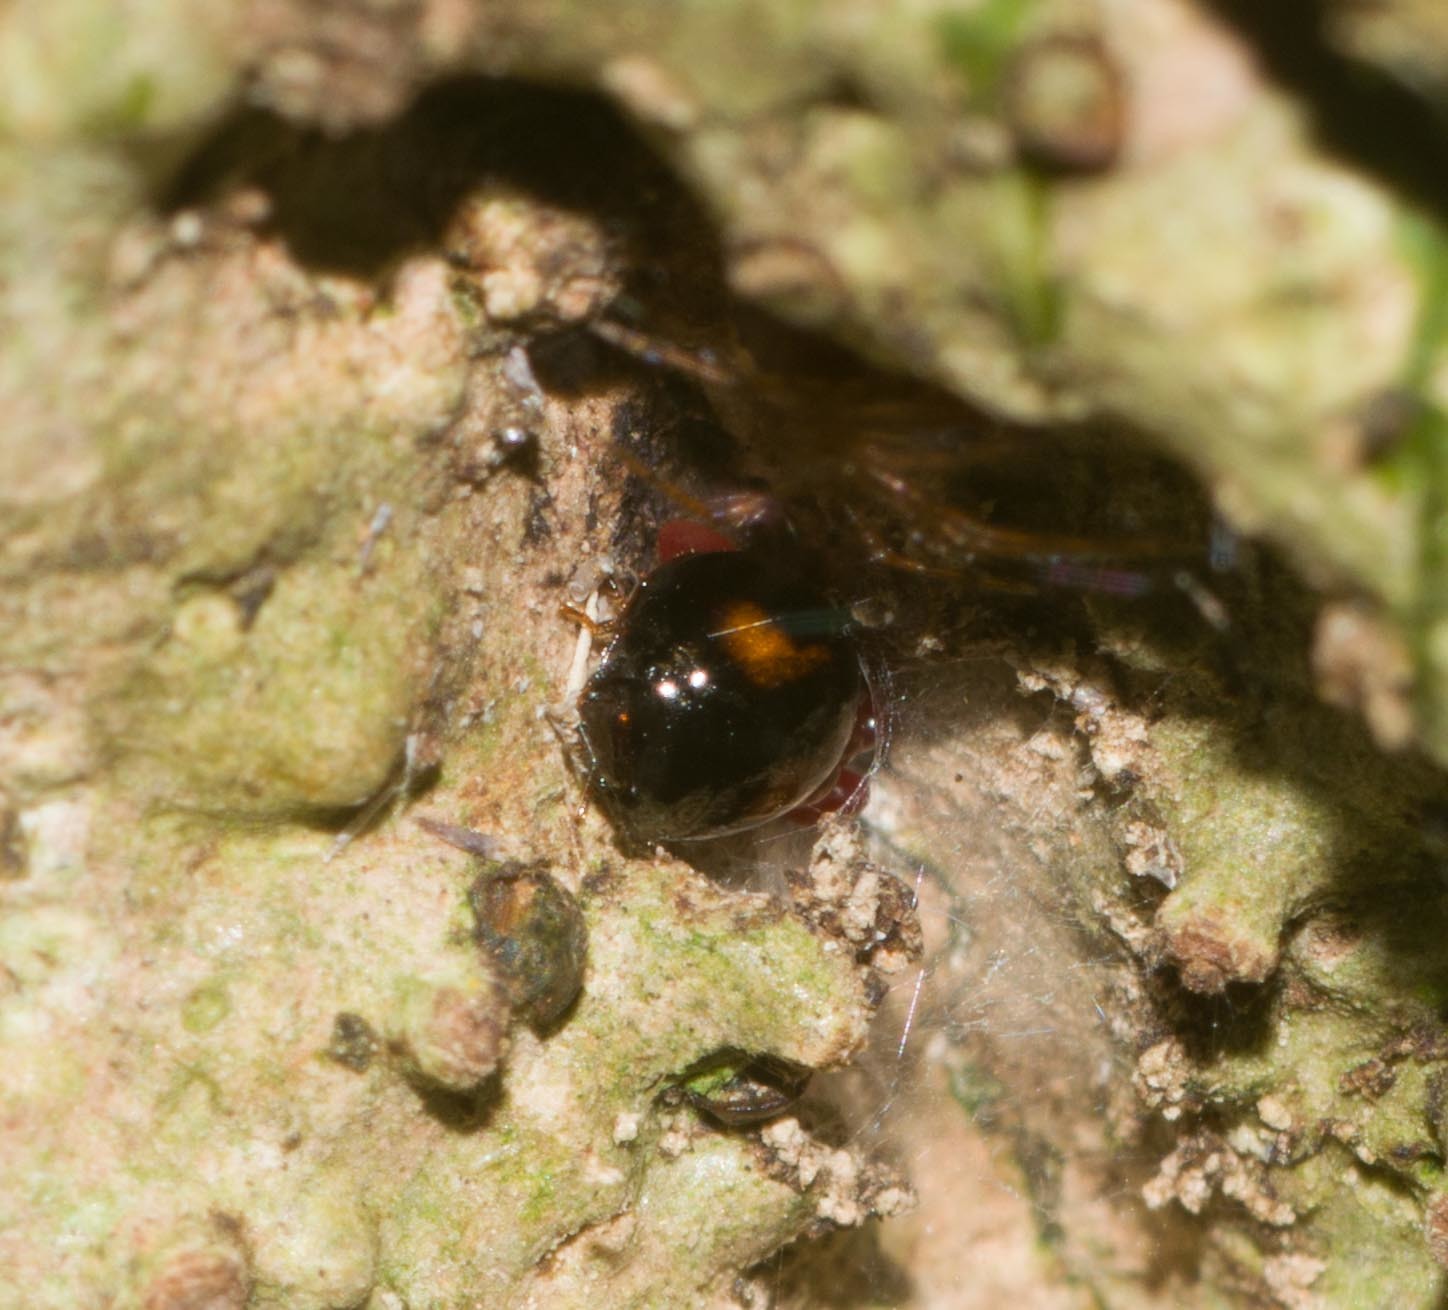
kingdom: Animalia
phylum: Arthropoda
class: Insecta
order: Coleoptera
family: Tenebrionidae
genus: Stethotrypes
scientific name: Stethotrypes
